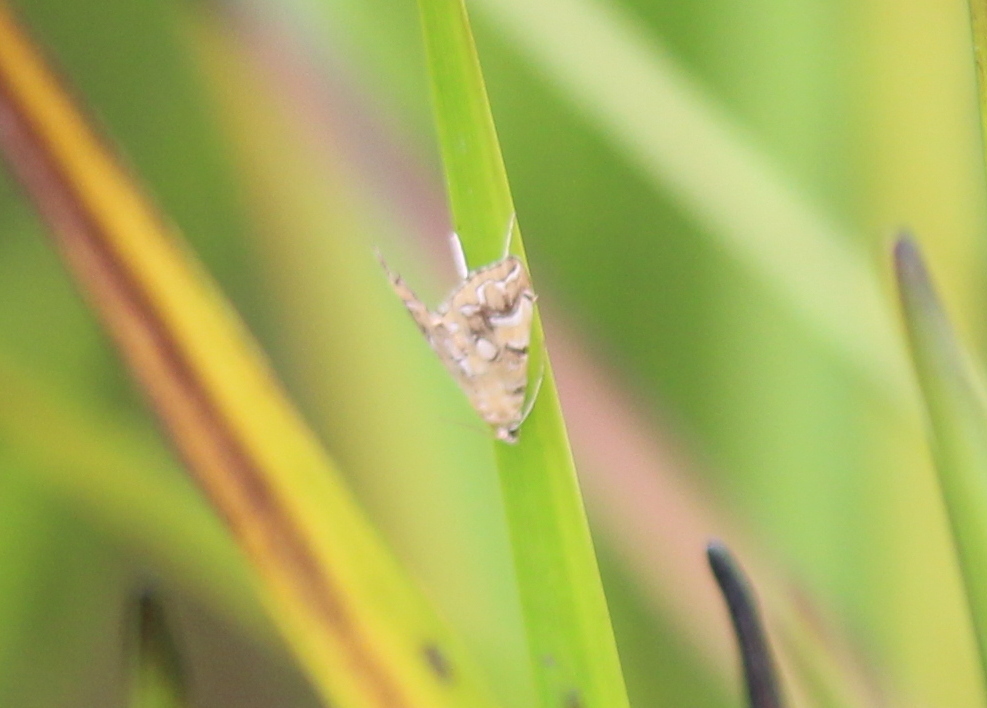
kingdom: Animalia
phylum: Arthropoda
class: Insecta
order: Lepidoptera
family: Crambidae
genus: Elophila
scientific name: Elophila icciusalis
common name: Pondside pyralid moth
